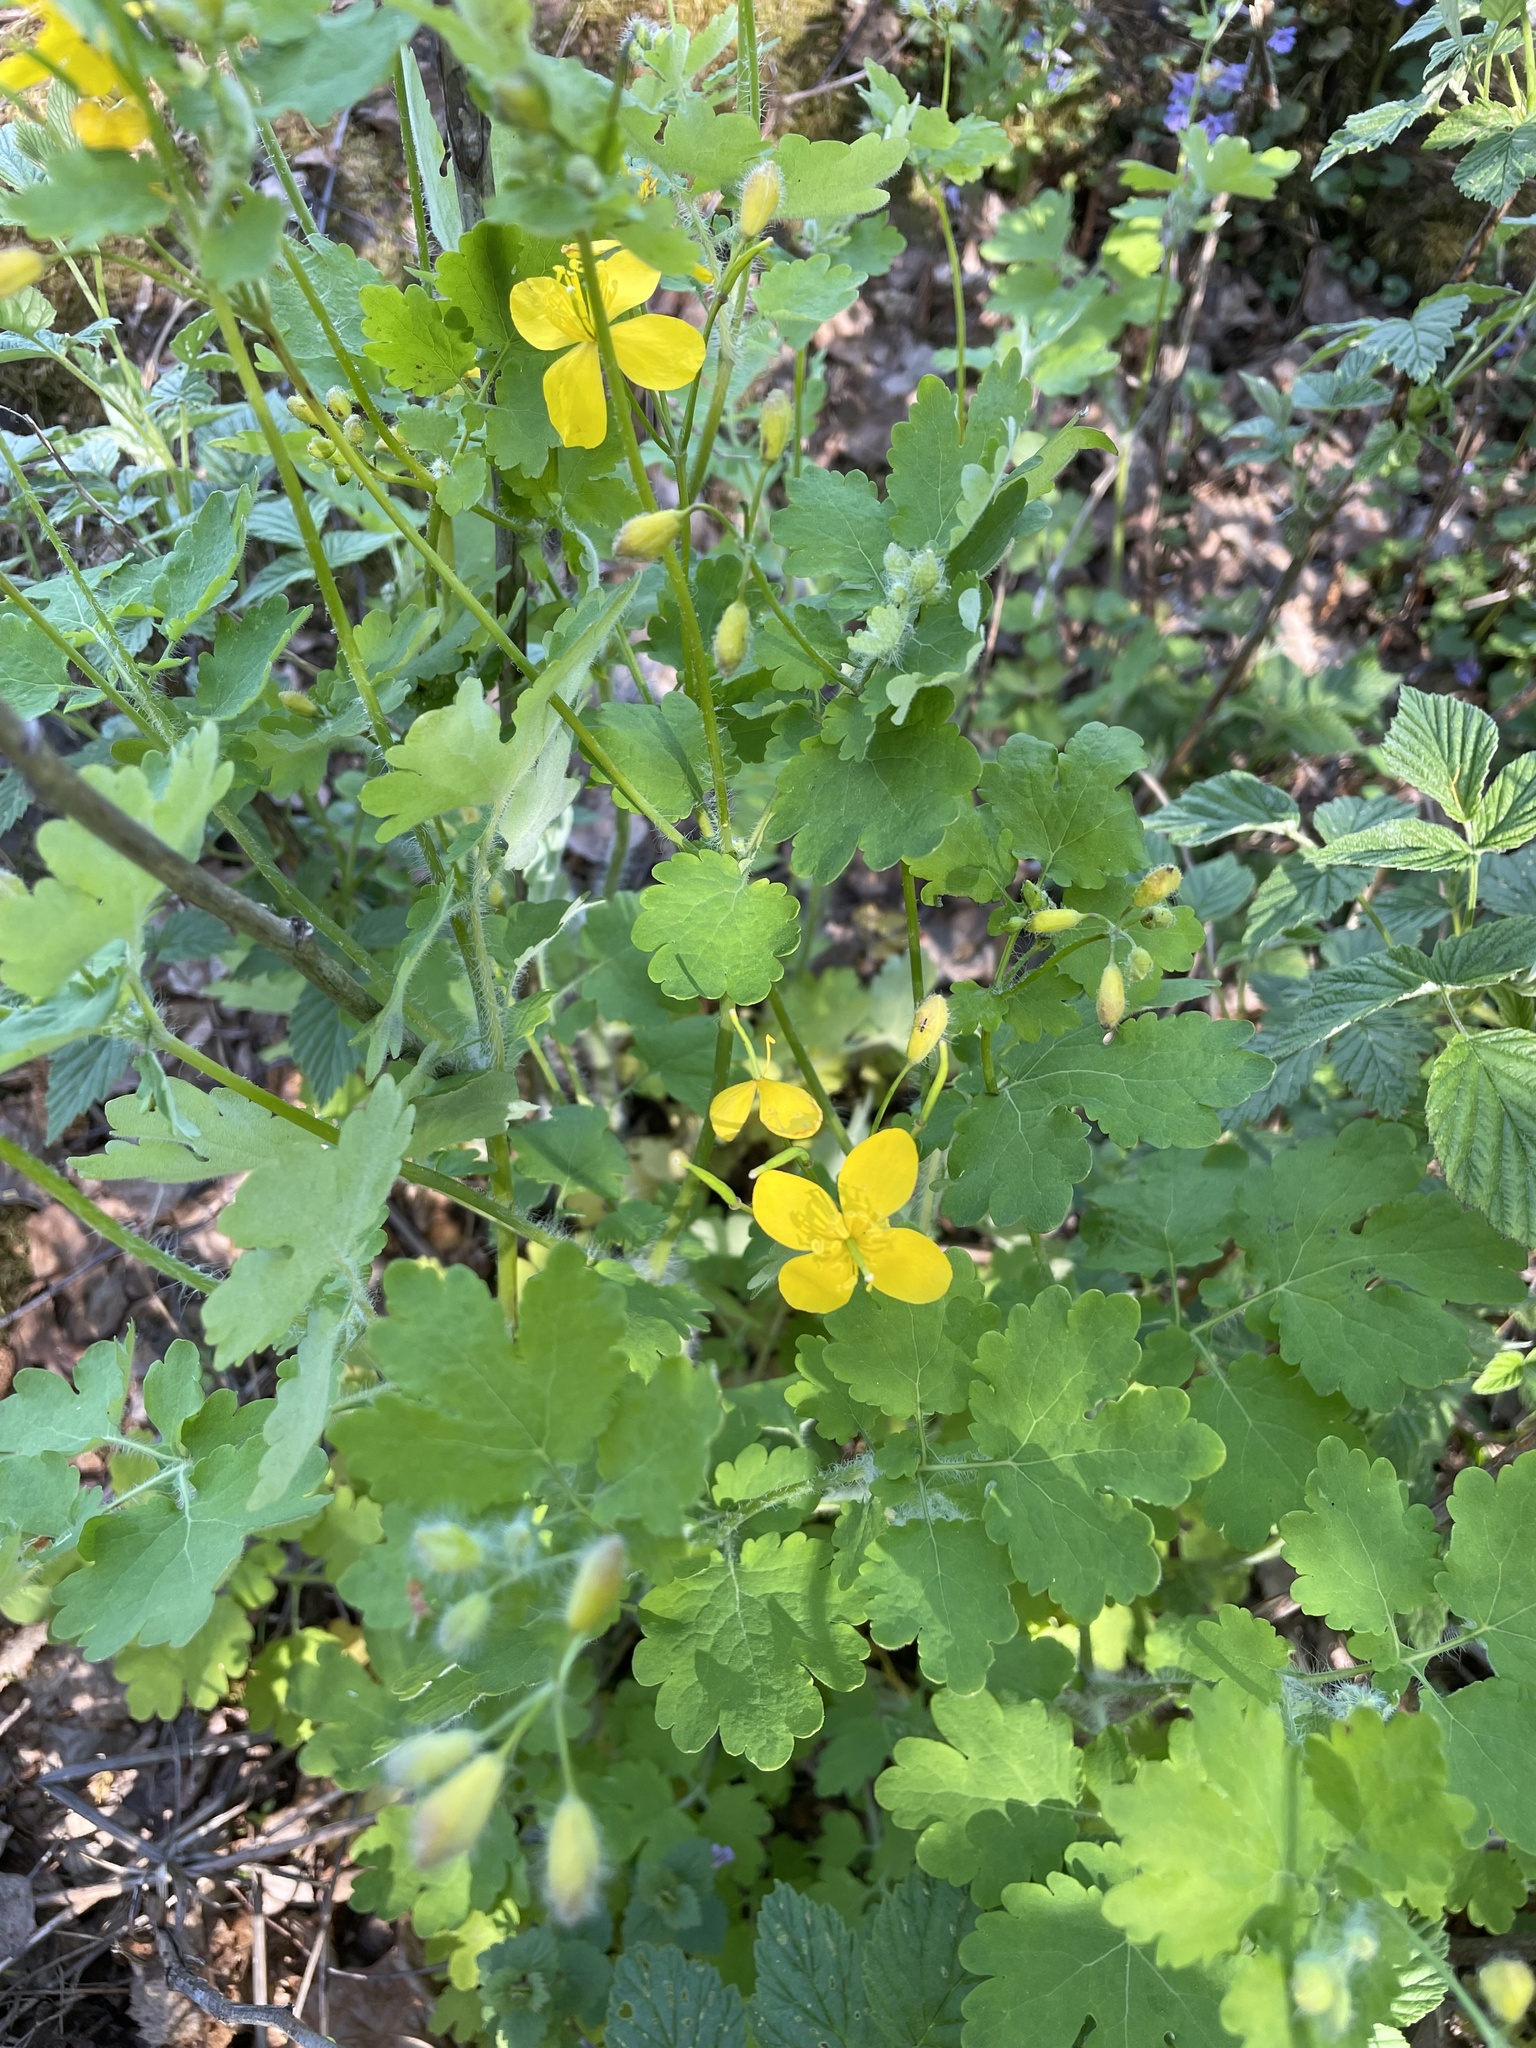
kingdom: Plantae
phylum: Tracheophyta
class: Magnoliopsida
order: Ranunculales
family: Papaveraceae
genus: Chelidonium
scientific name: Chelidonium majus
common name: Greater celandine
